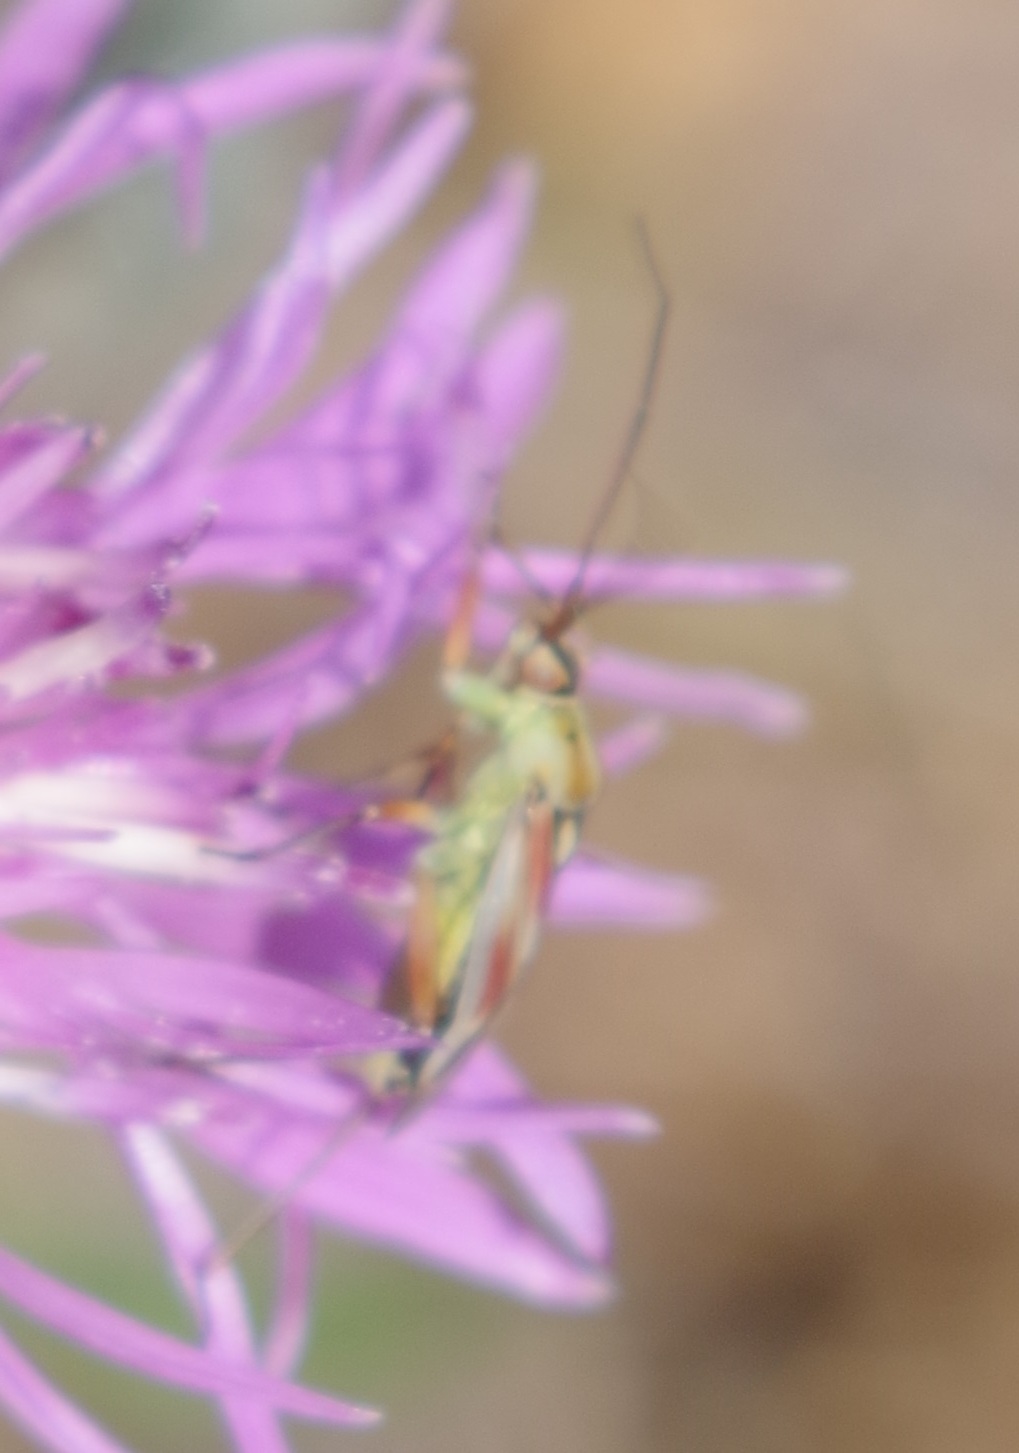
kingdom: Animalia
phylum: Arthropoda
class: Insecta
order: Hemiptera
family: Miridae
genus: Calocoris
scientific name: Calocoris roseomaculatus
